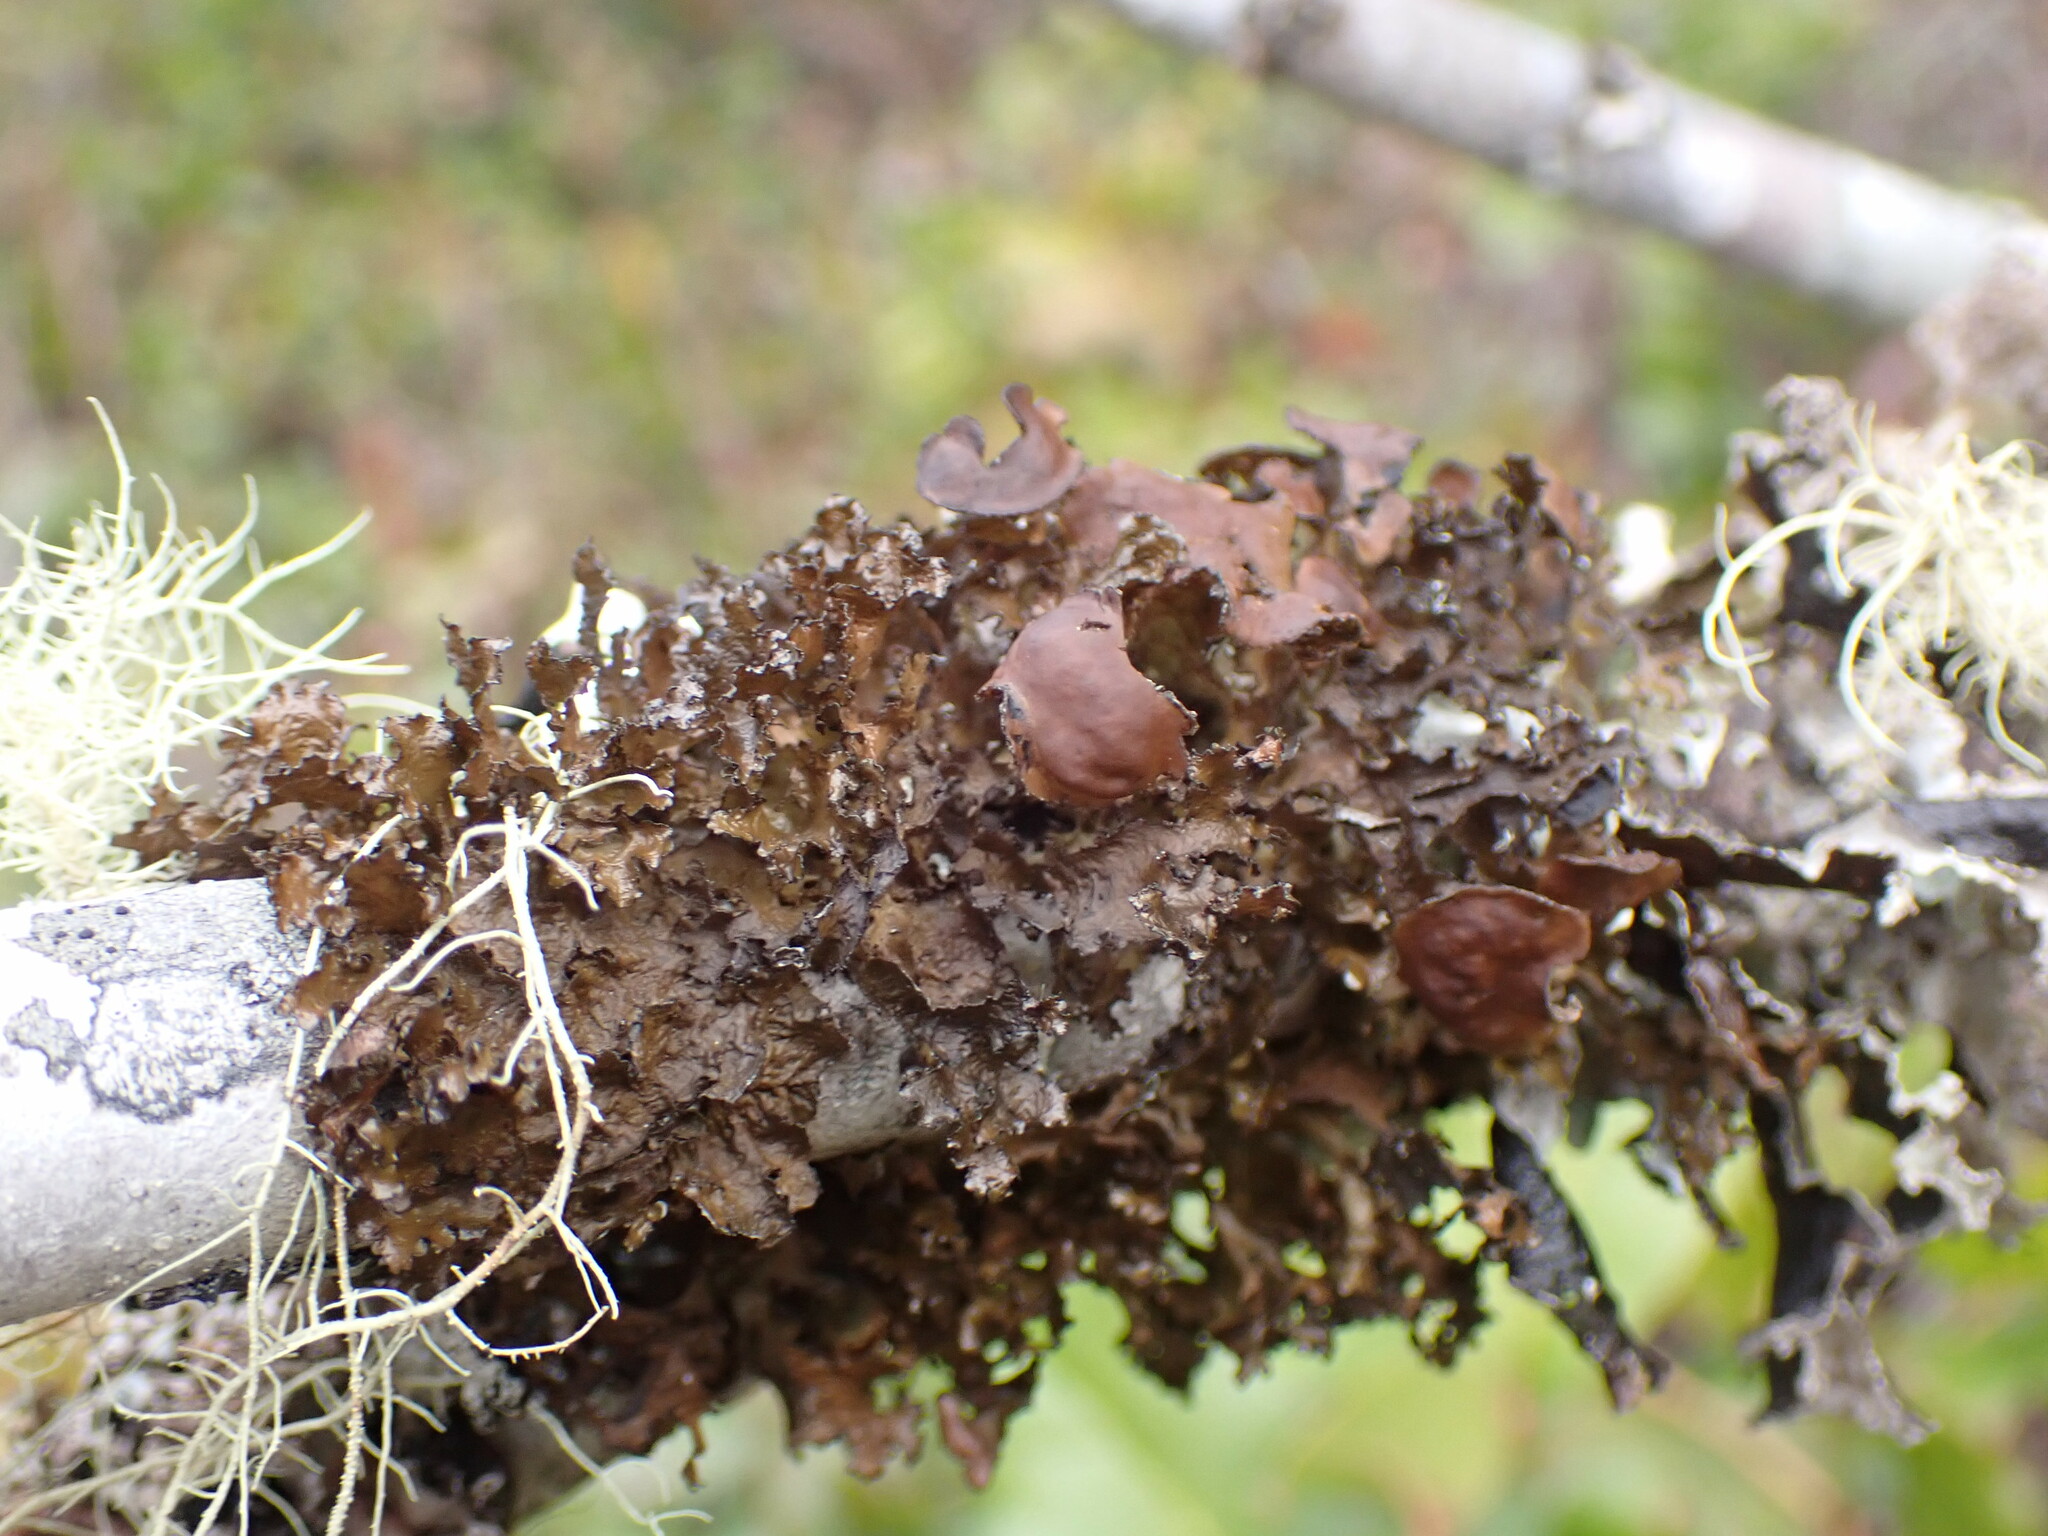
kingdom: Fungi
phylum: Ascomycota
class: Lecanoromycetes
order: Lecanorales
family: Parmeliaceae
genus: Nephromopsis
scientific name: Nephromopsis orbata
